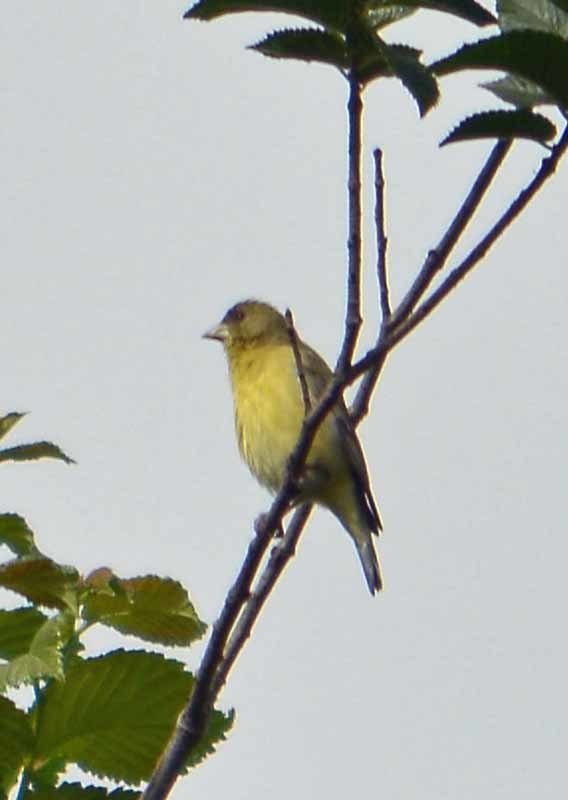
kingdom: Animalia
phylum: Chordata
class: Aves
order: Passeriformes
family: Fringillidae
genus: Spinus
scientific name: Spinus psaltria
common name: Lesser goldfinch
